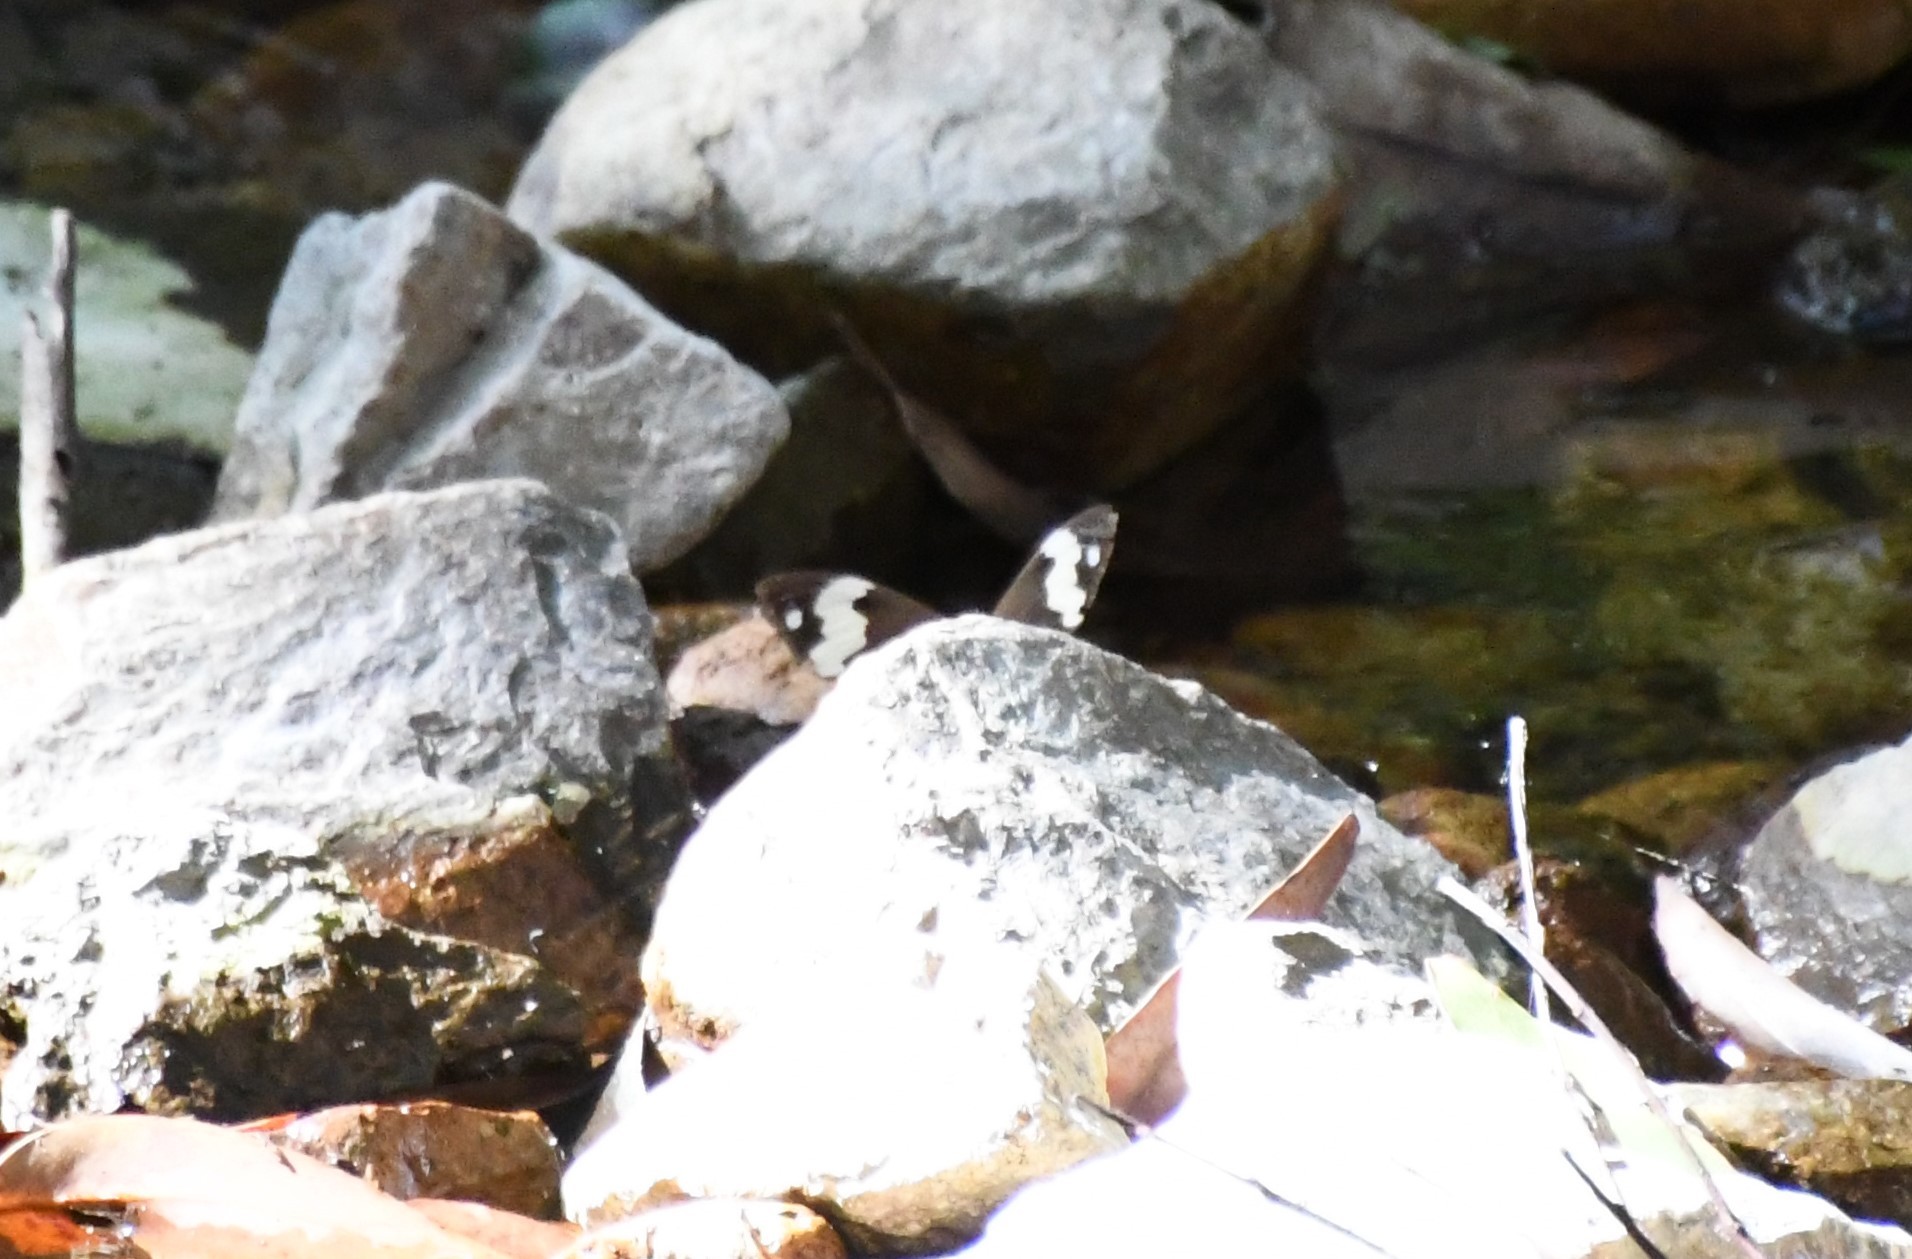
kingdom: Animalia
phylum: Arthropoda
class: Insecta
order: Lepidoptera
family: Nymphalidae
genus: Heteronympha
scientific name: Heteronympha mirifica
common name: Wonder brown
